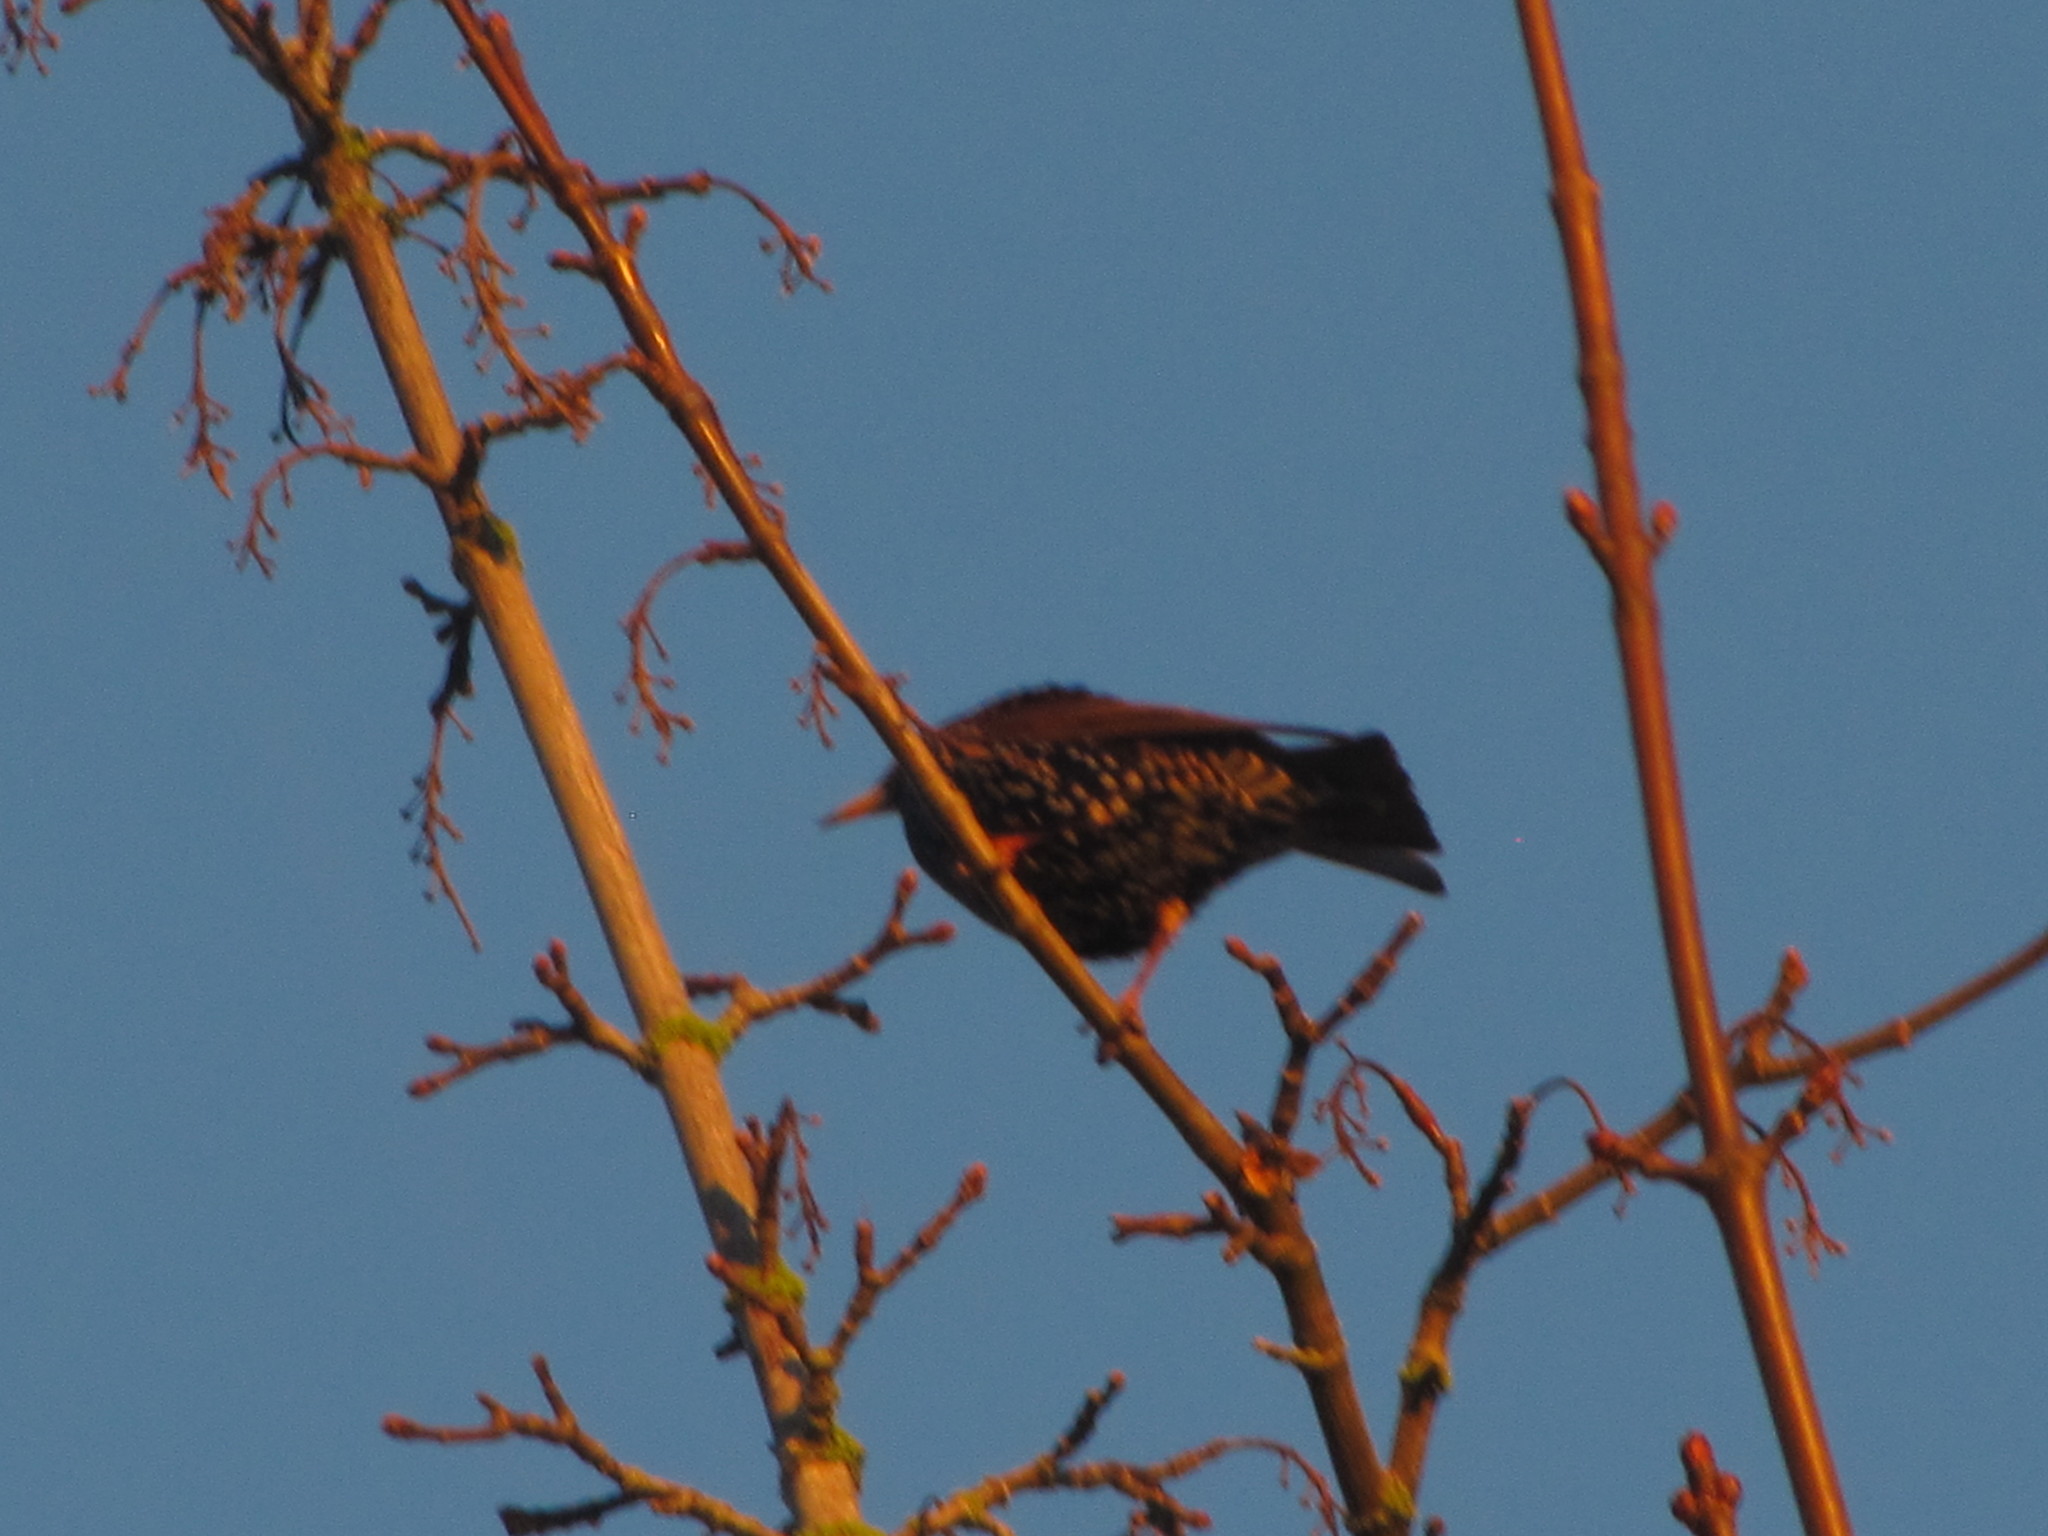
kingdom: Animalia
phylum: Chordata
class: Aves
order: Passeriformes
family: Sturnidae
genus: Sturnus
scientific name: Sturnus vulgaris
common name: Common starling
